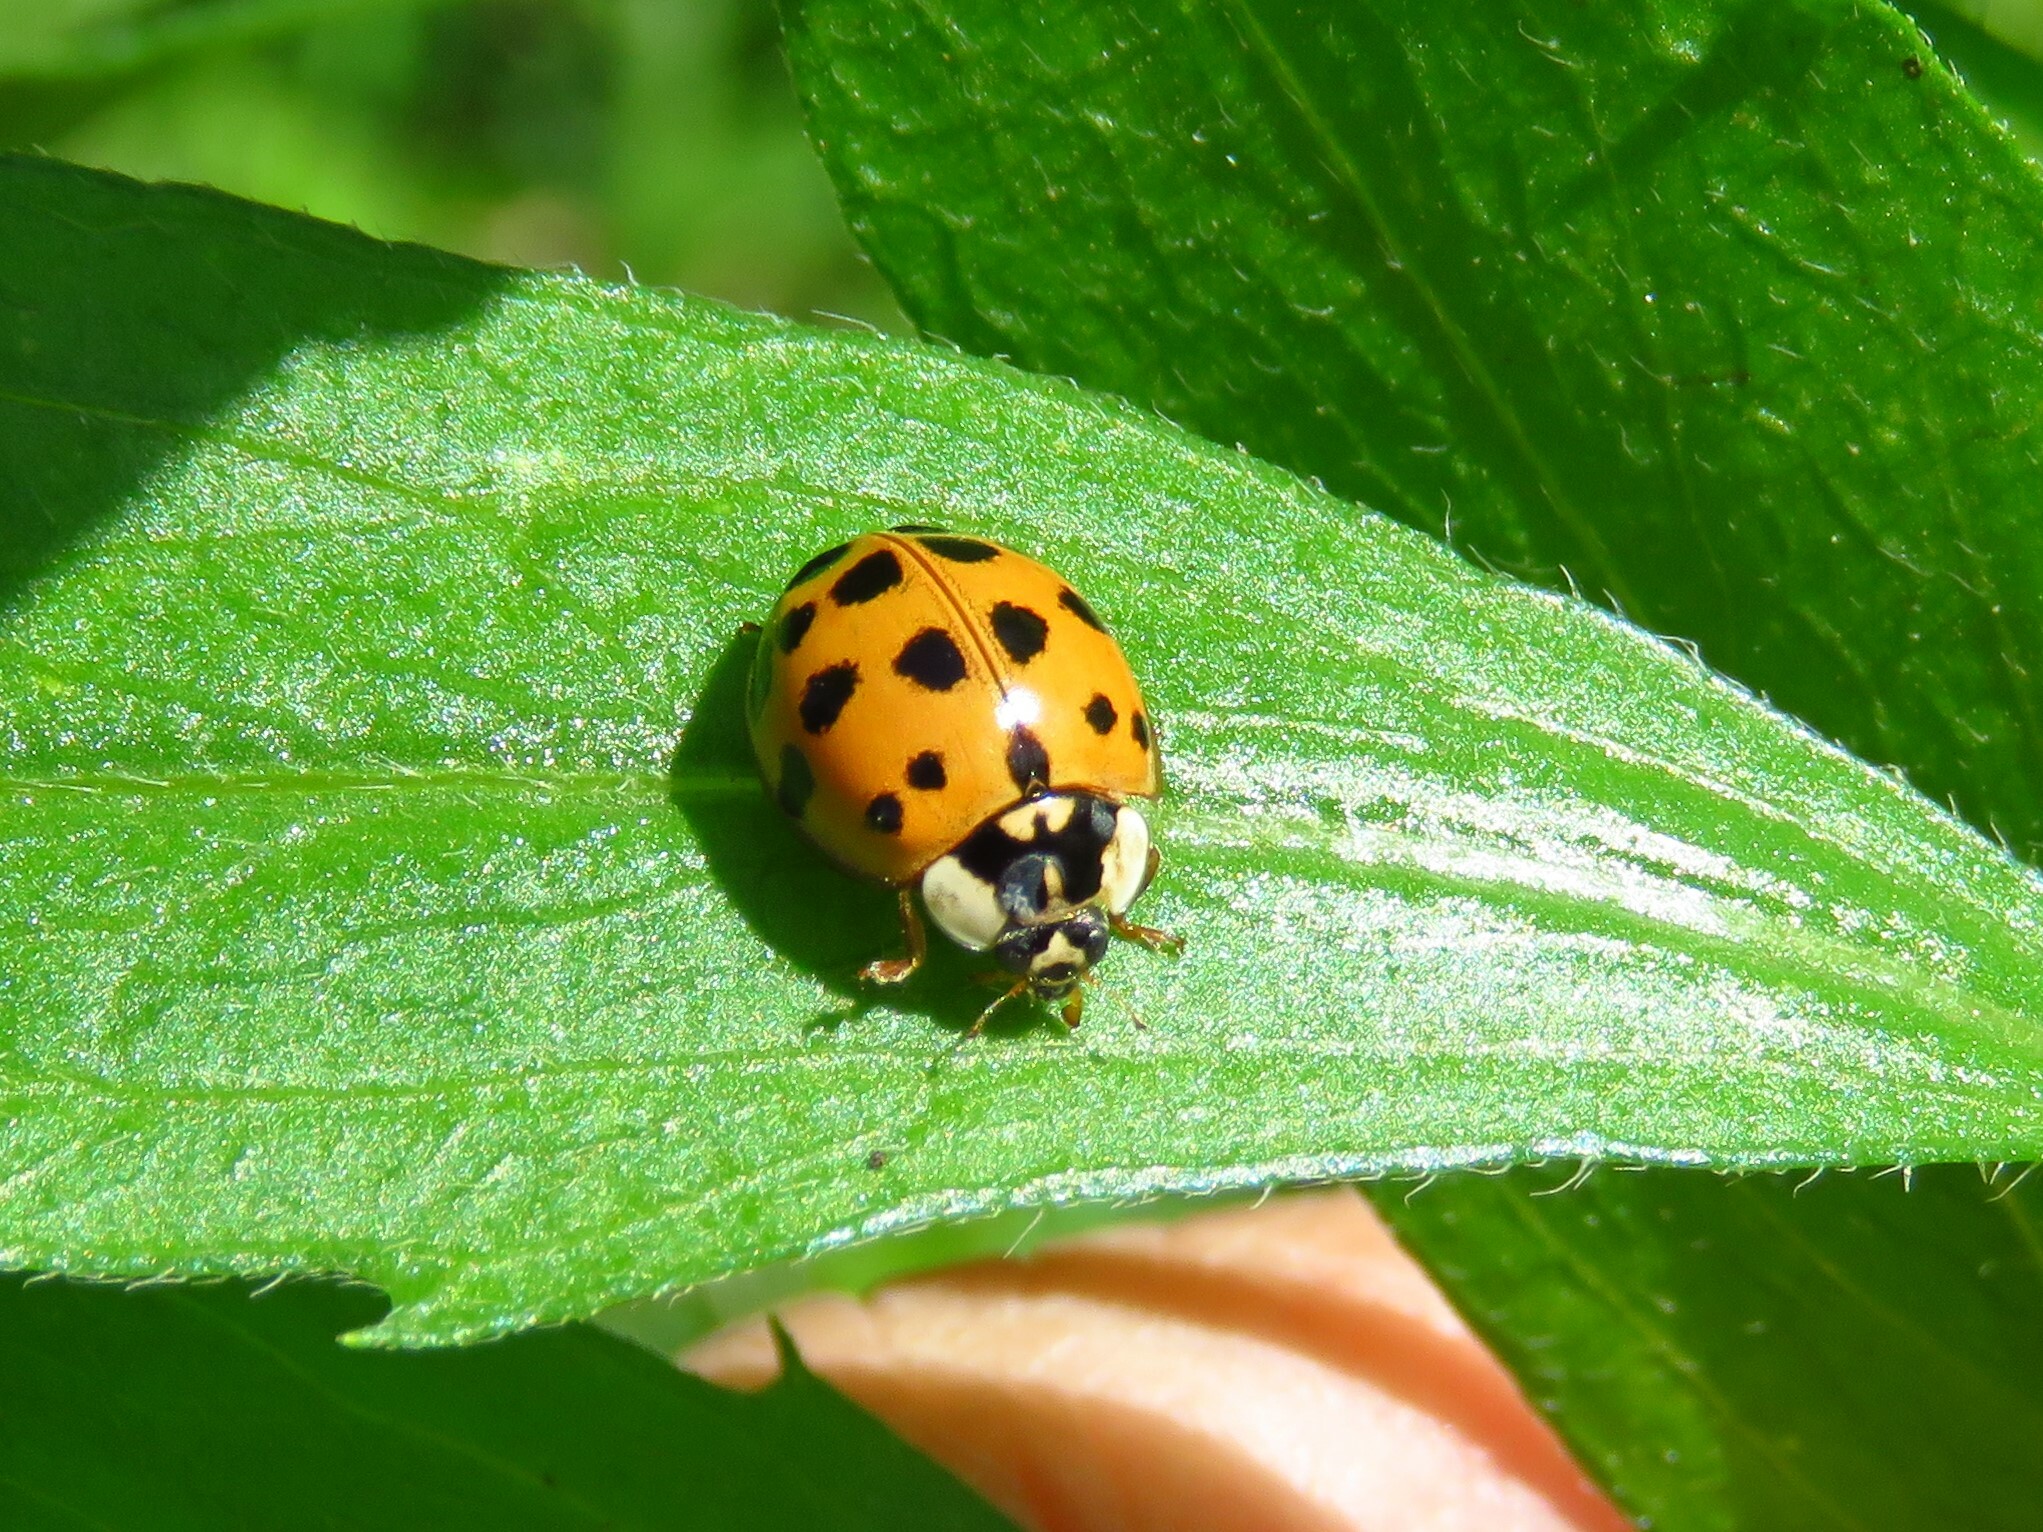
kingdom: Animalia
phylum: Arthropoda
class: Insecta
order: Coleoptera
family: Coccinellidae
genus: Harmonia
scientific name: Harmonia axyridis
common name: Harlequin ladybird
